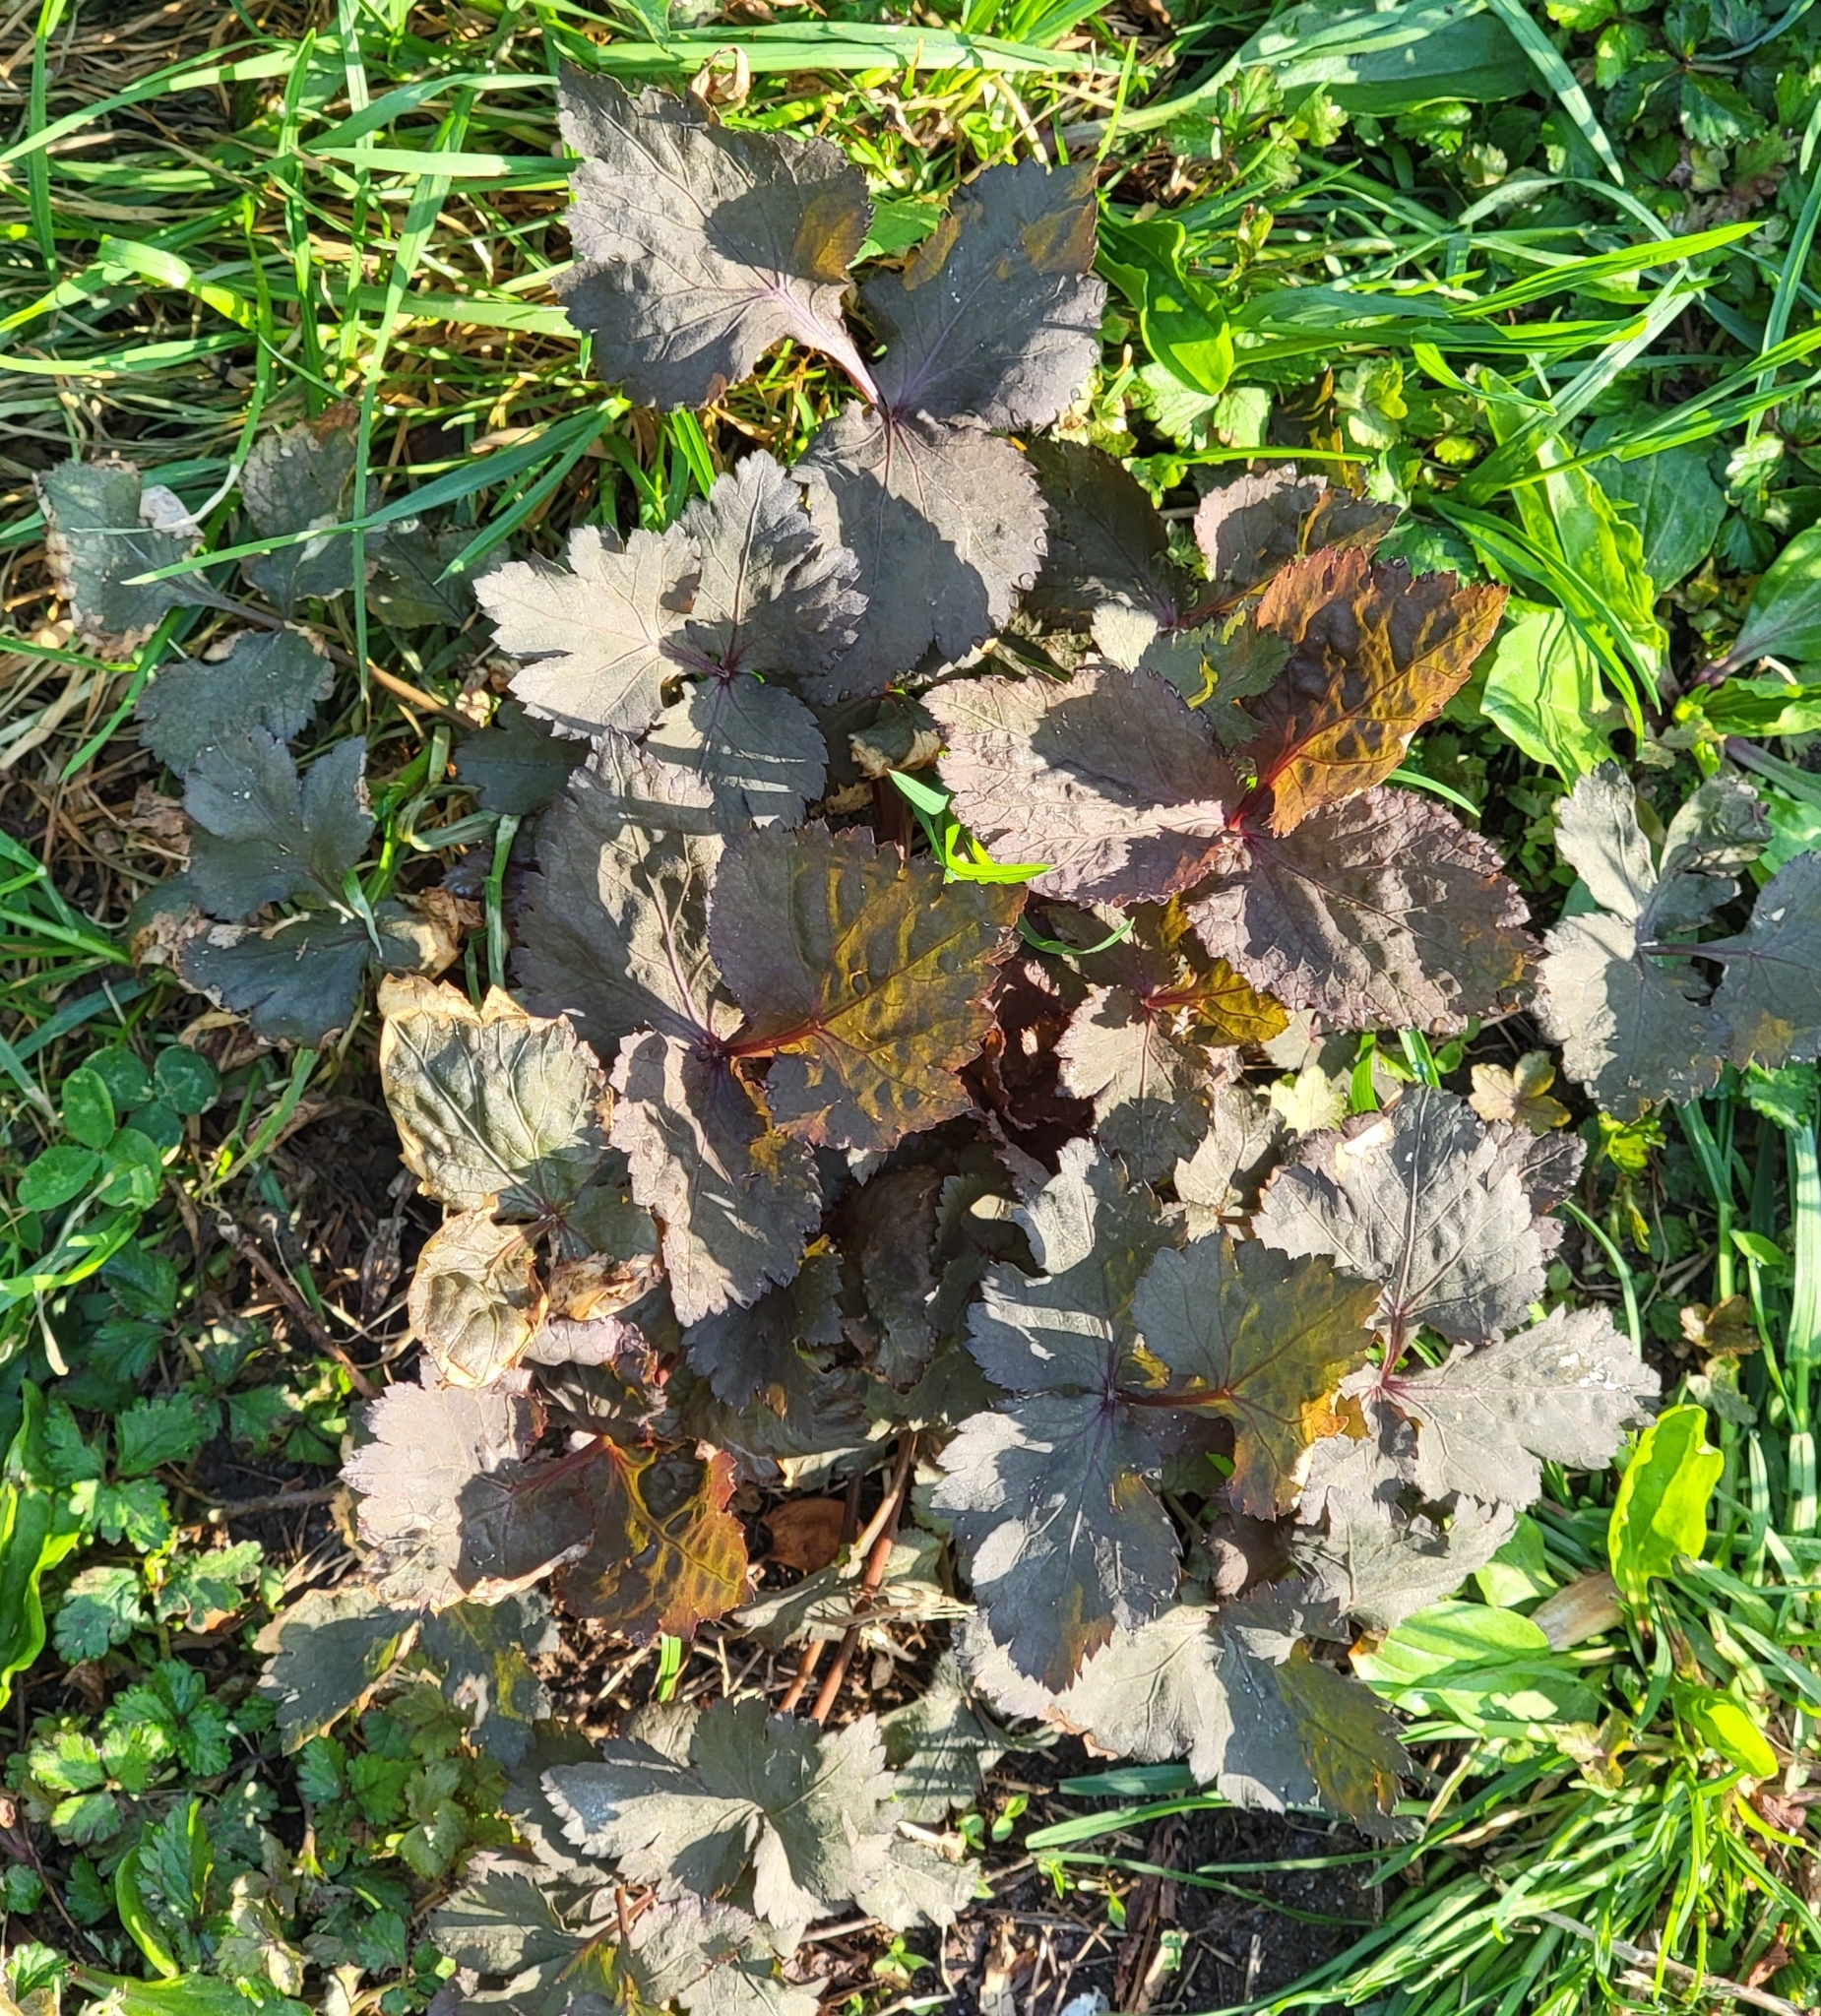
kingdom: Plantae
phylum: Tracheophyta
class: Magnoliopsida
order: Apiales
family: Apiaceae
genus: Cryptotaenia
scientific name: Cryptotaenia japonica
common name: Japanese cryptotaenia
